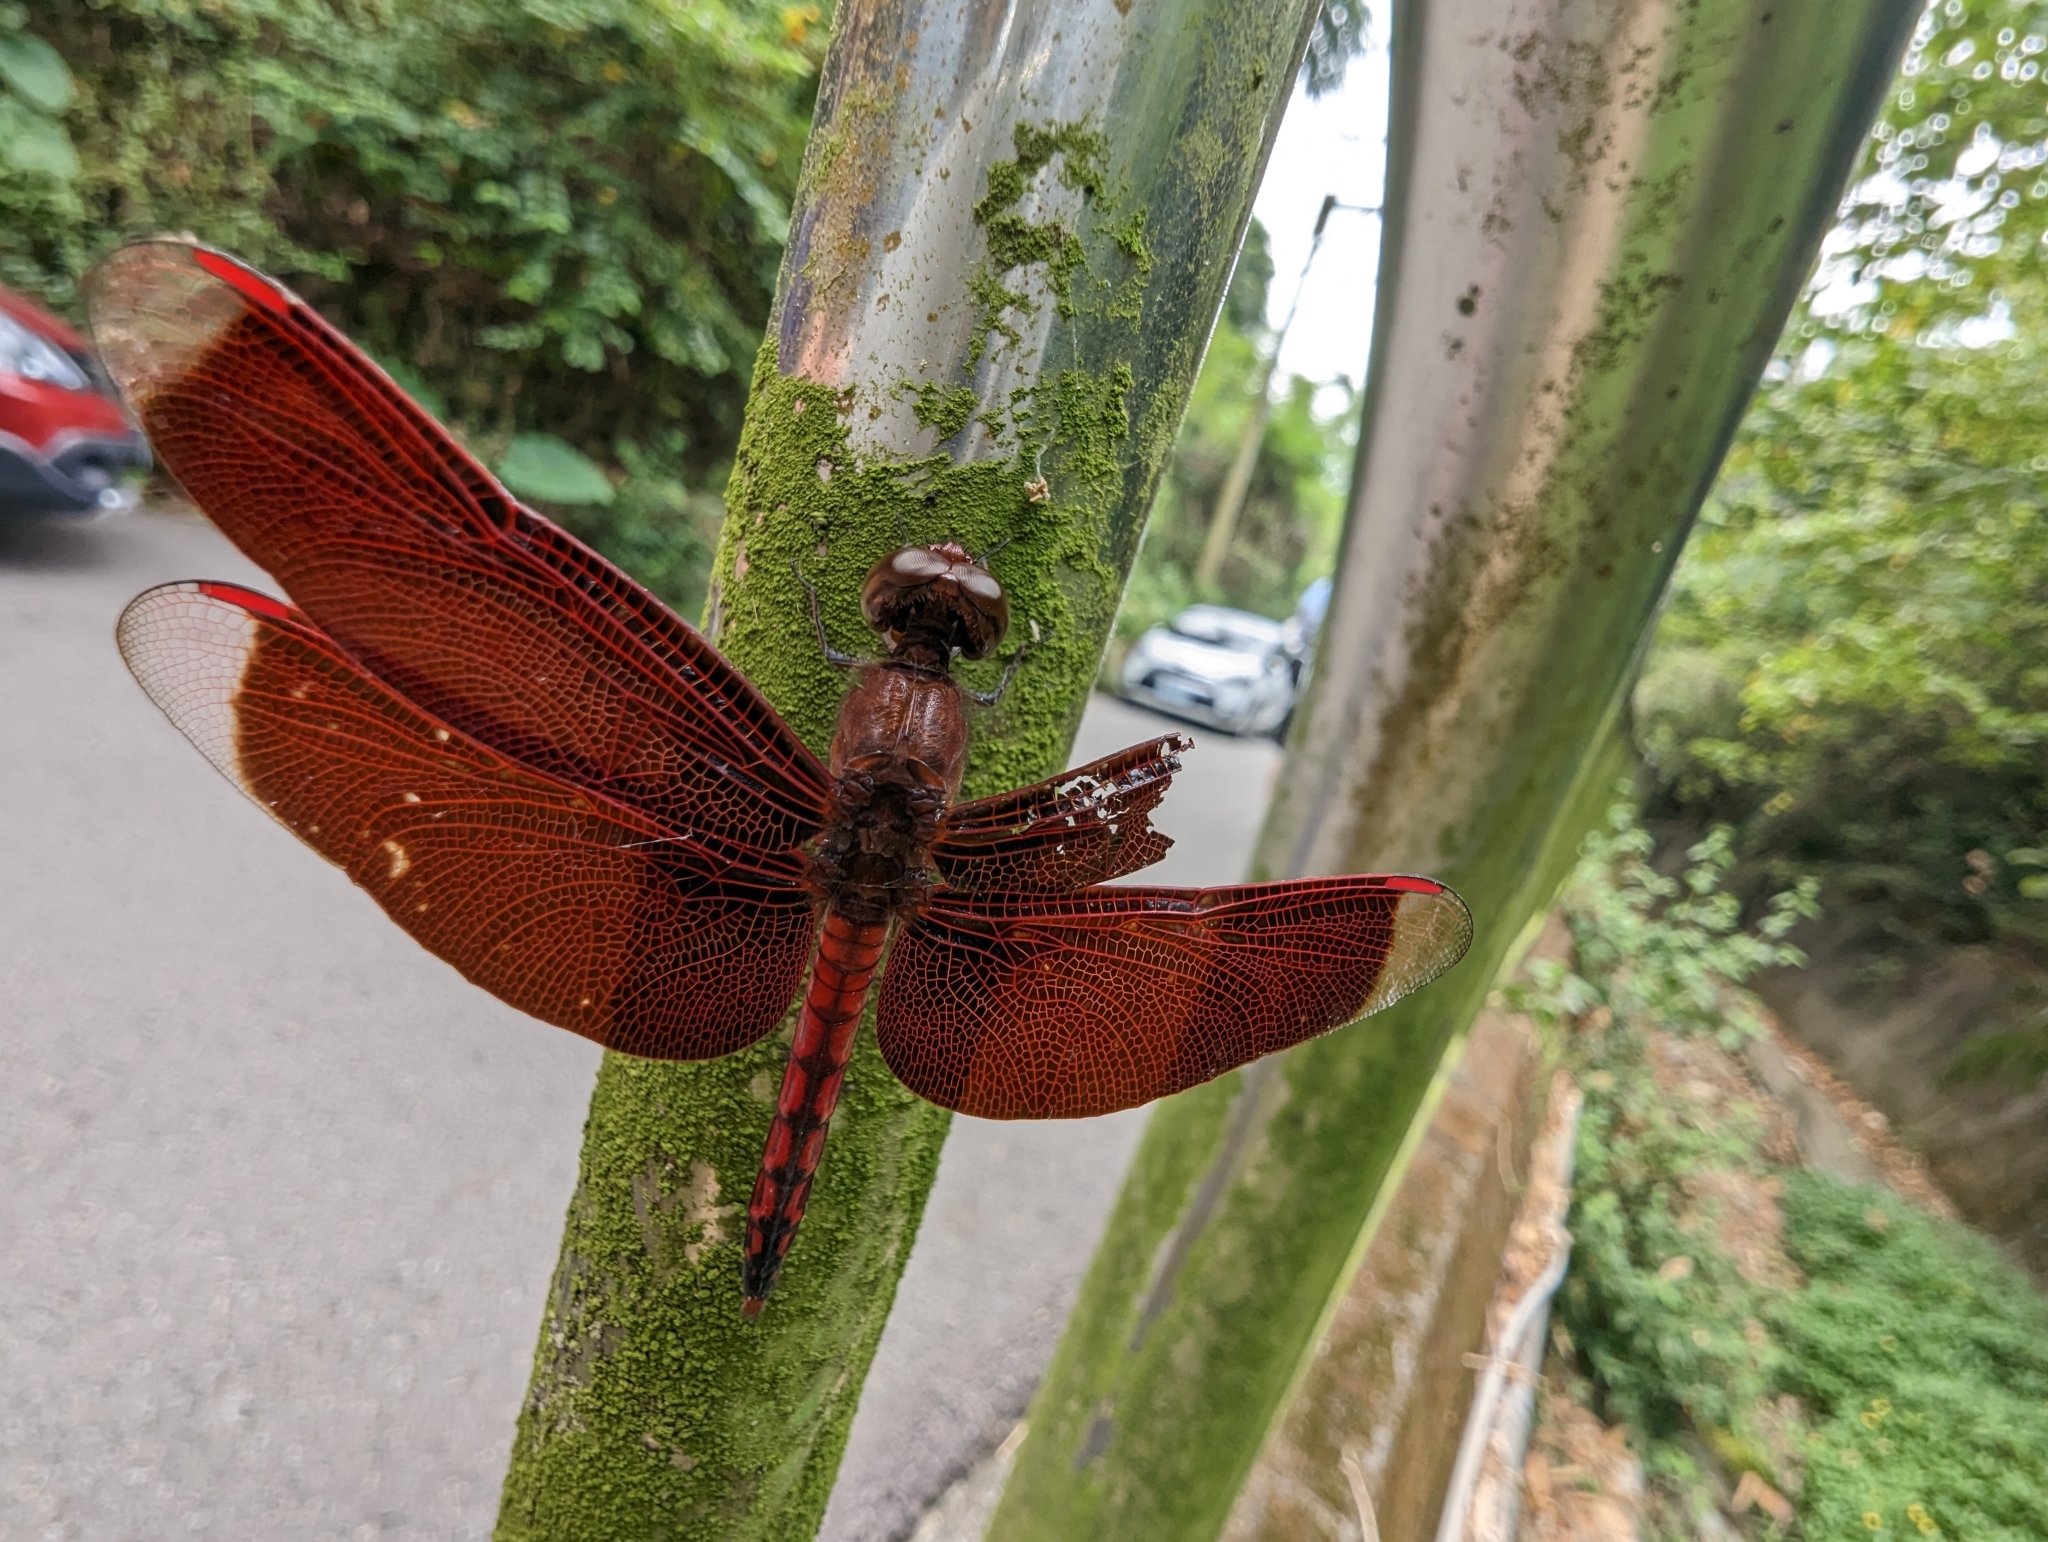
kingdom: Animalia
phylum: Arthropoda
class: Insecta
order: Odonata
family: Libellulidae
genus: Neurothemis
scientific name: Neurothemis taiwanensis
